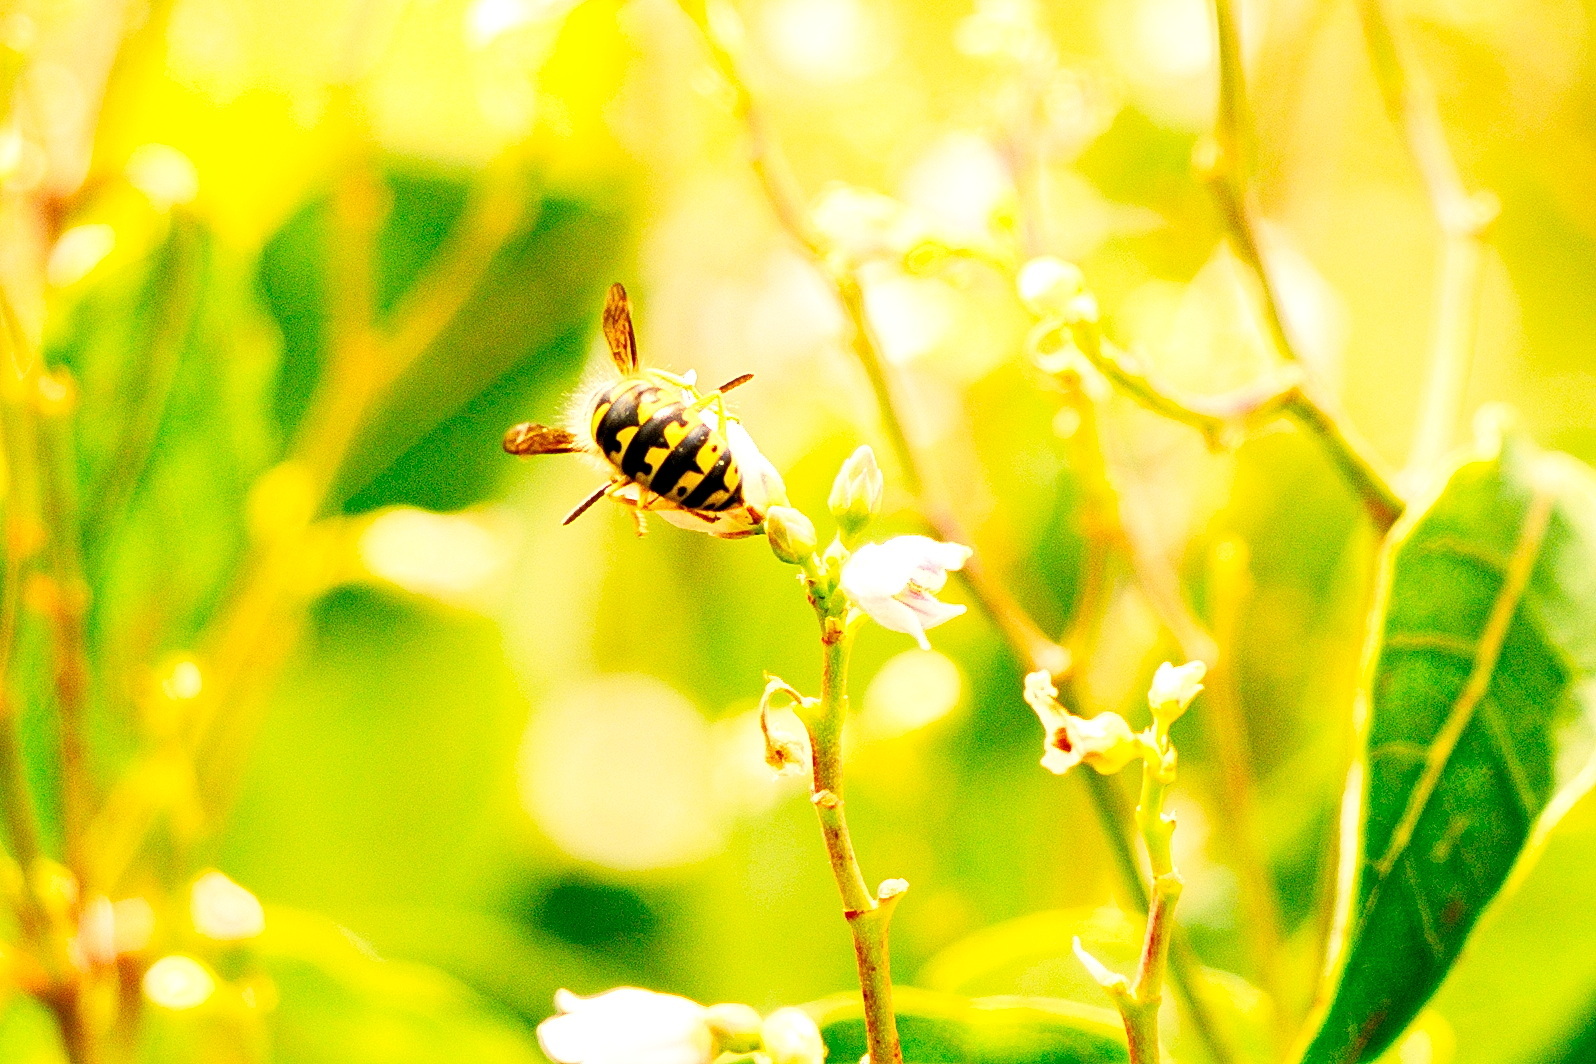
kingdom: Animalia
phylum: Arthropoda
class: Insecta
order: Hymenoptera
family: Vespidae
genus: Dolichovespula
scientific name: Dolichovespula arenaria
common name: Aerial yellowjacket
